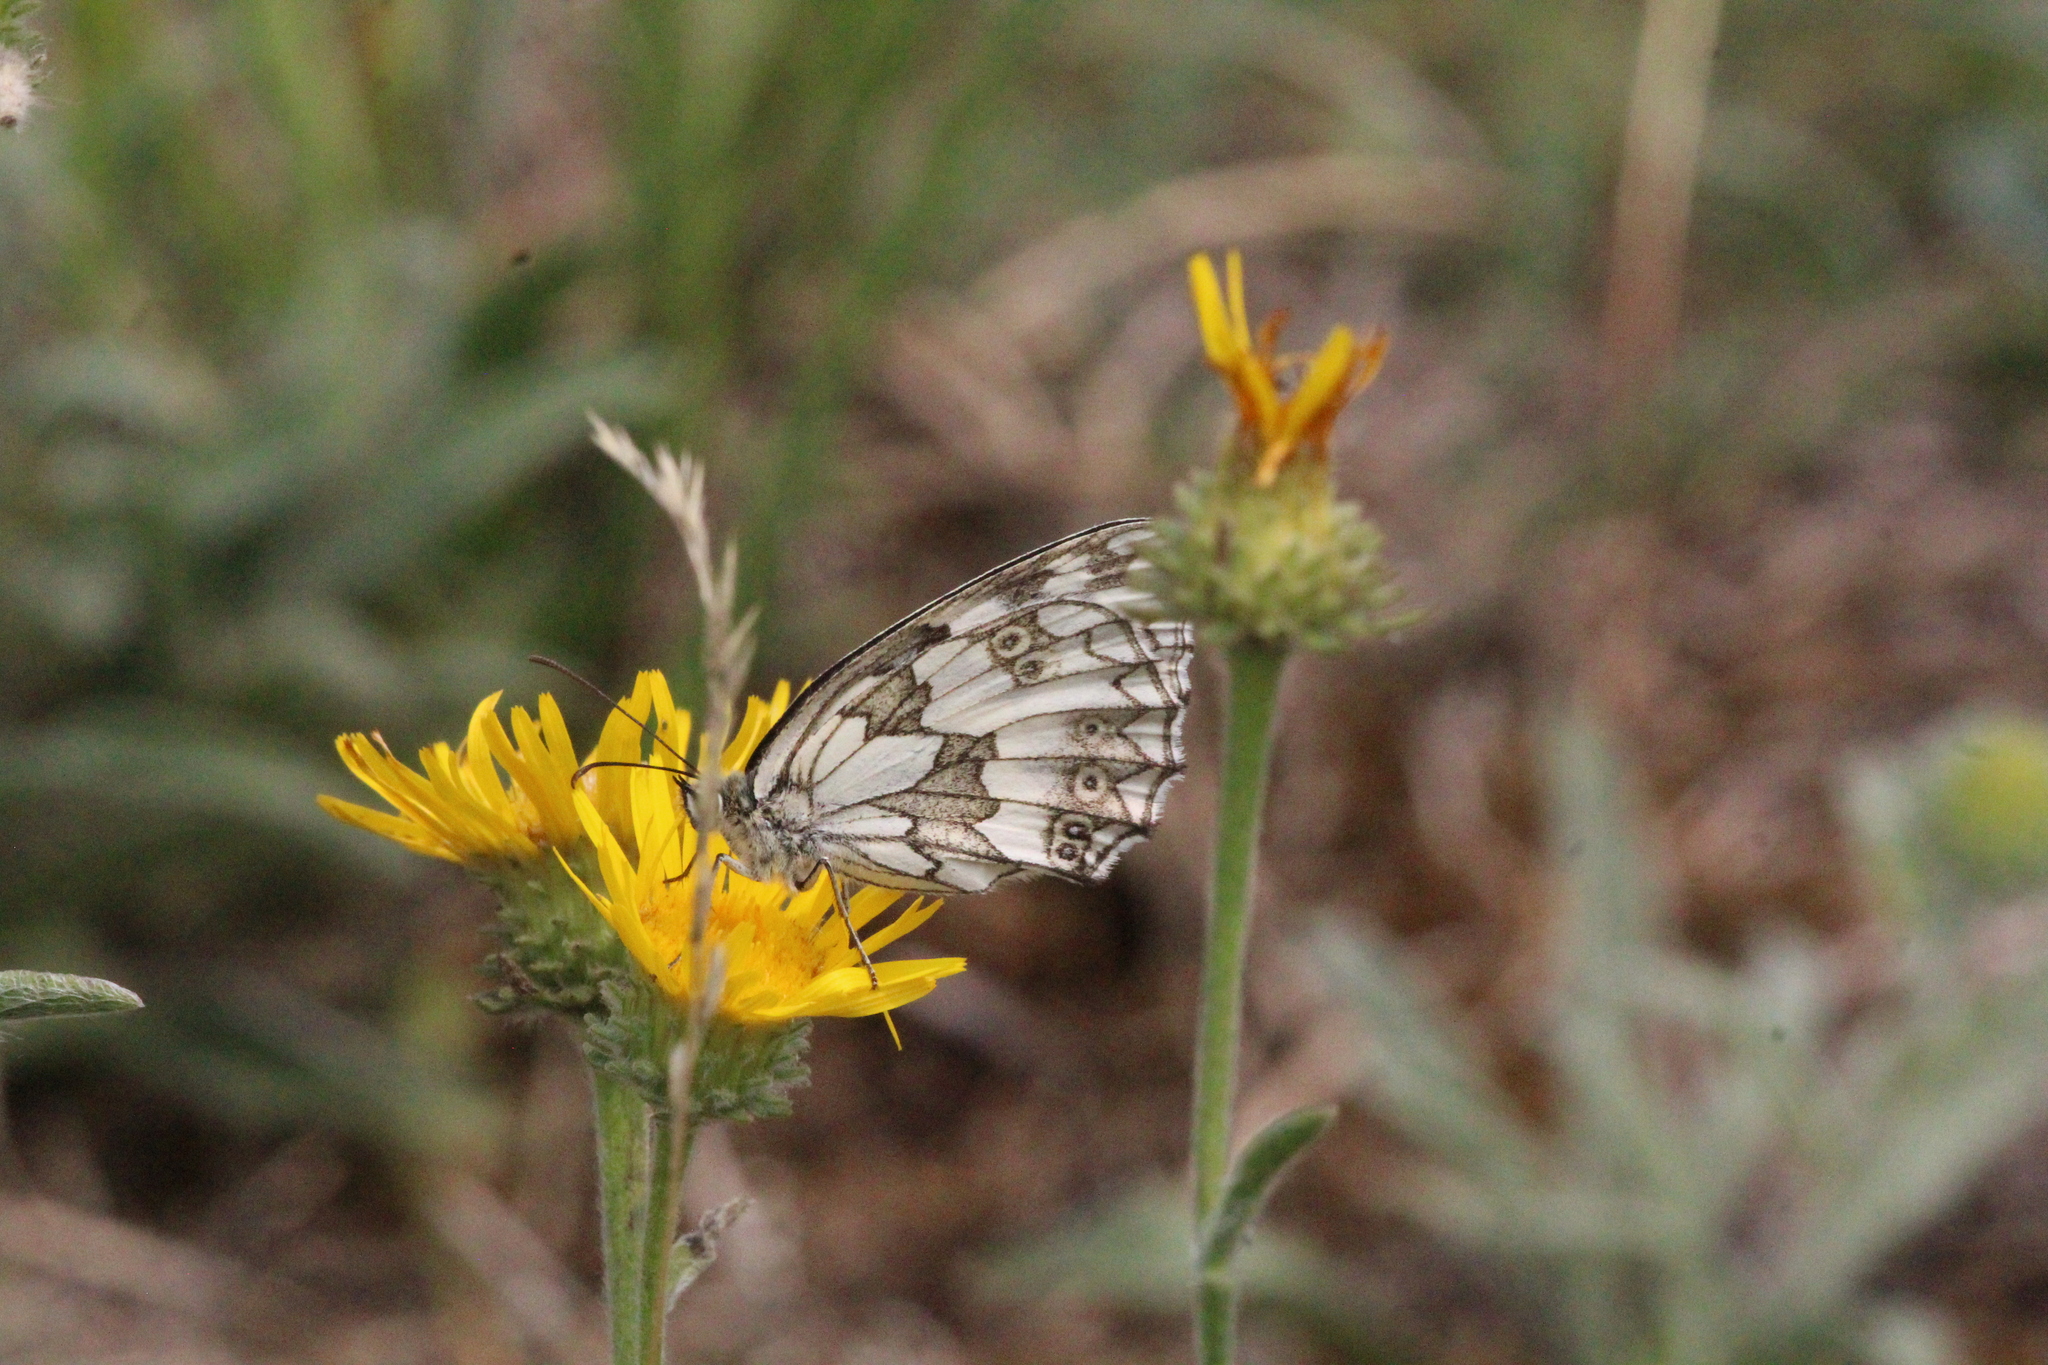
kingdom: Animalia
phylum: Arthropoda
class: Insecta
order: Lepidoptera
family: Nymphalidae
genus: Melanargia
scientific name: Melanargia galathea
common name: Marbled white
